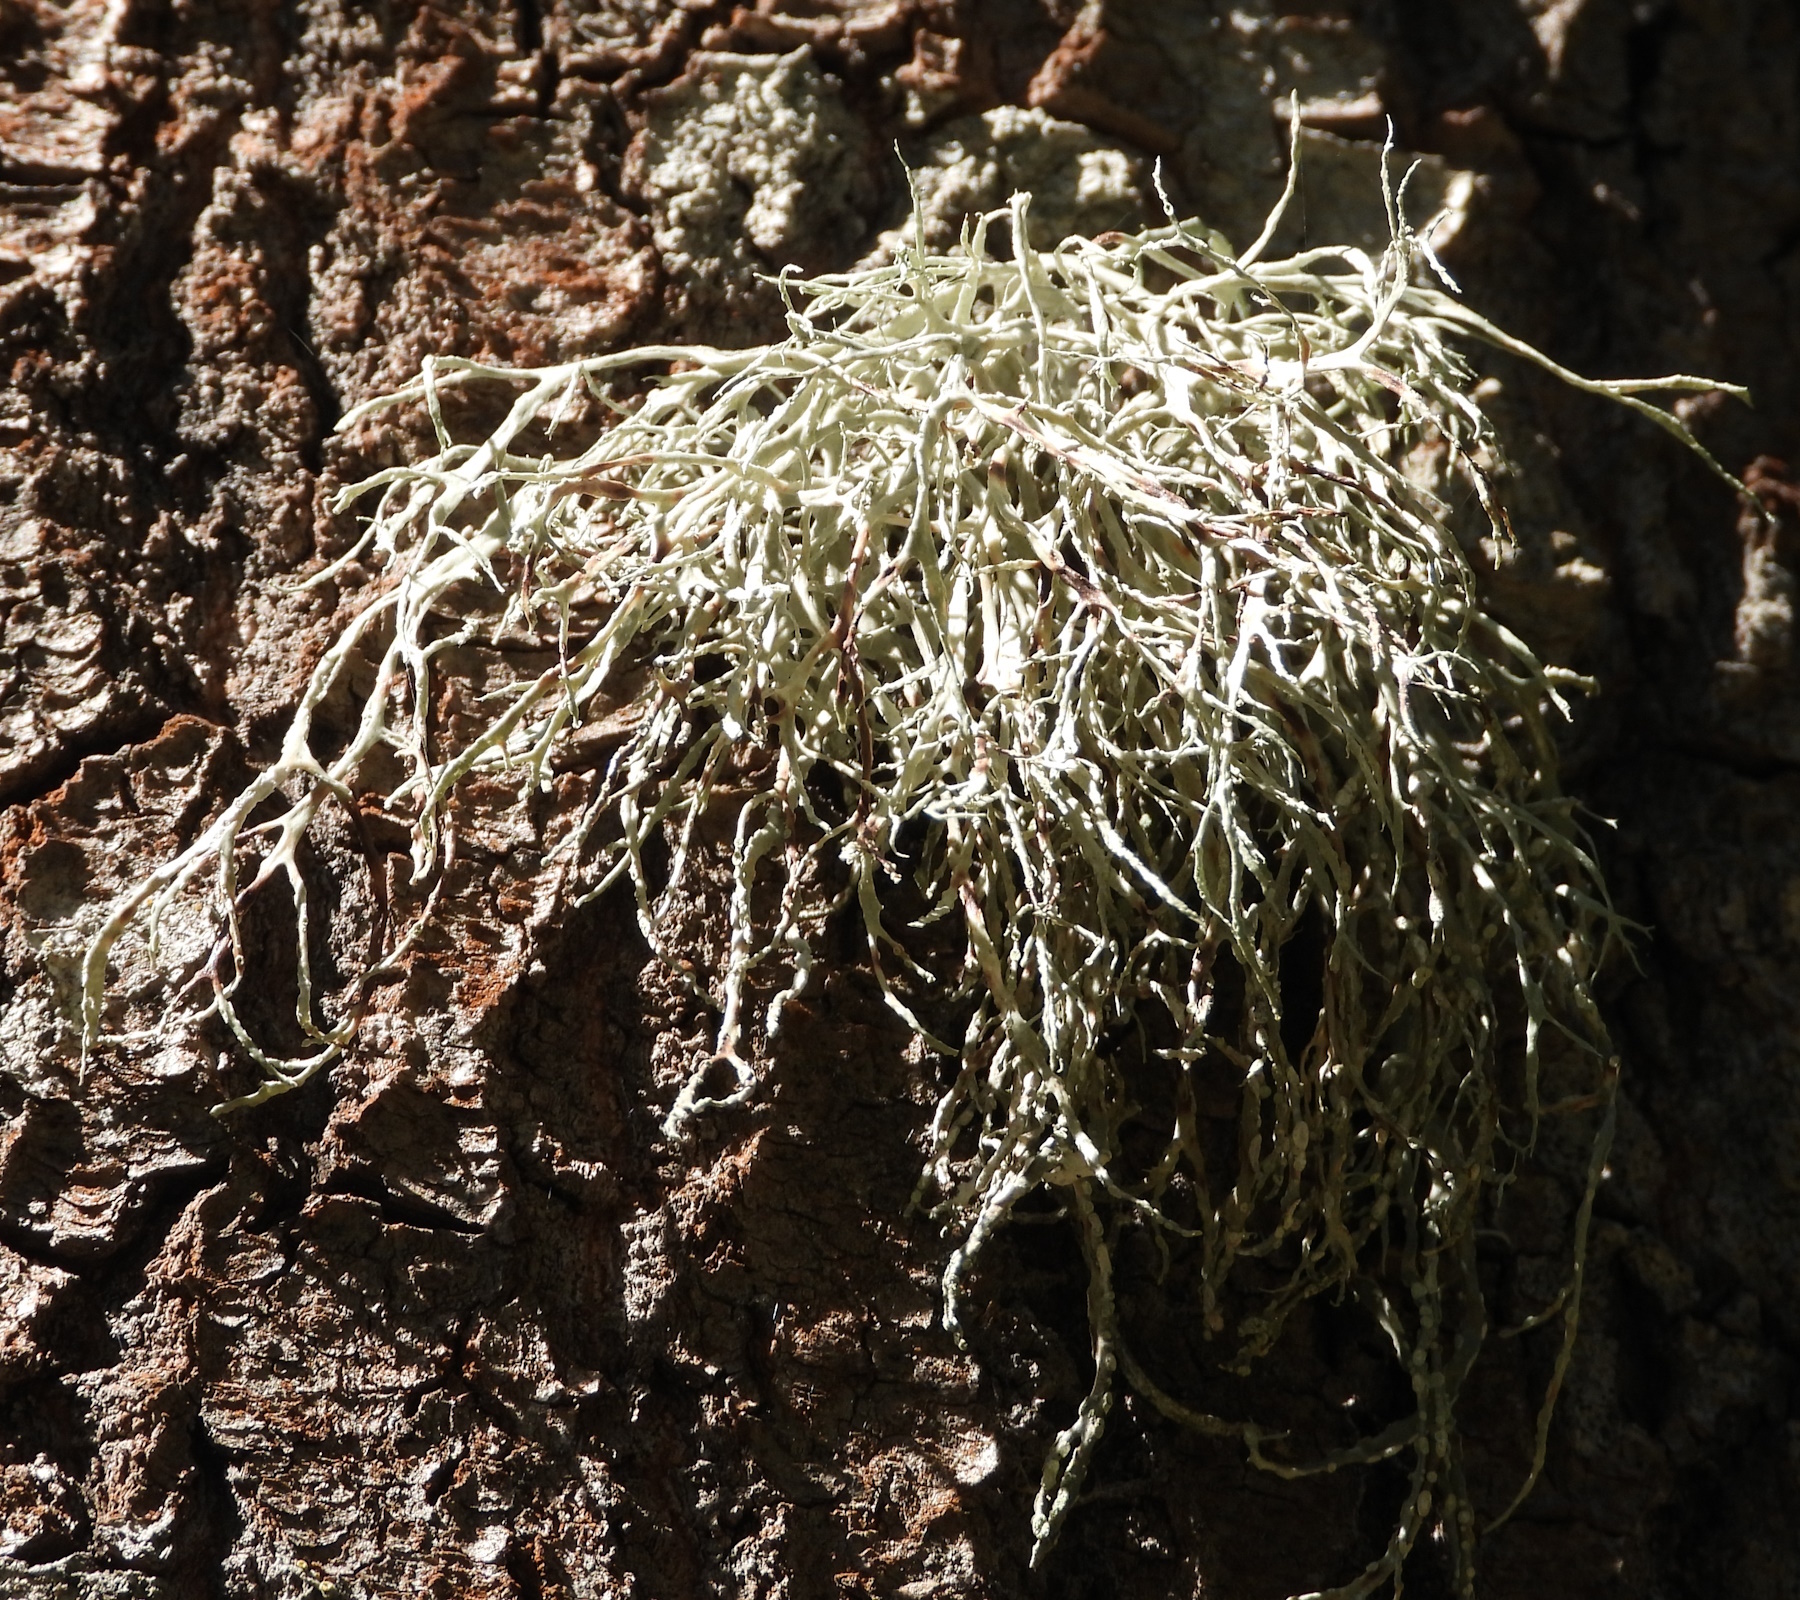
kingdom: Fungi
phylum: Ascomycota
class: Lecanoromycetes
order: Lecanorales
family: Ramalinaceae
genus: Ramalina
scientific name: Ramalina farinacea
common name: Farinose cartilage lichen
